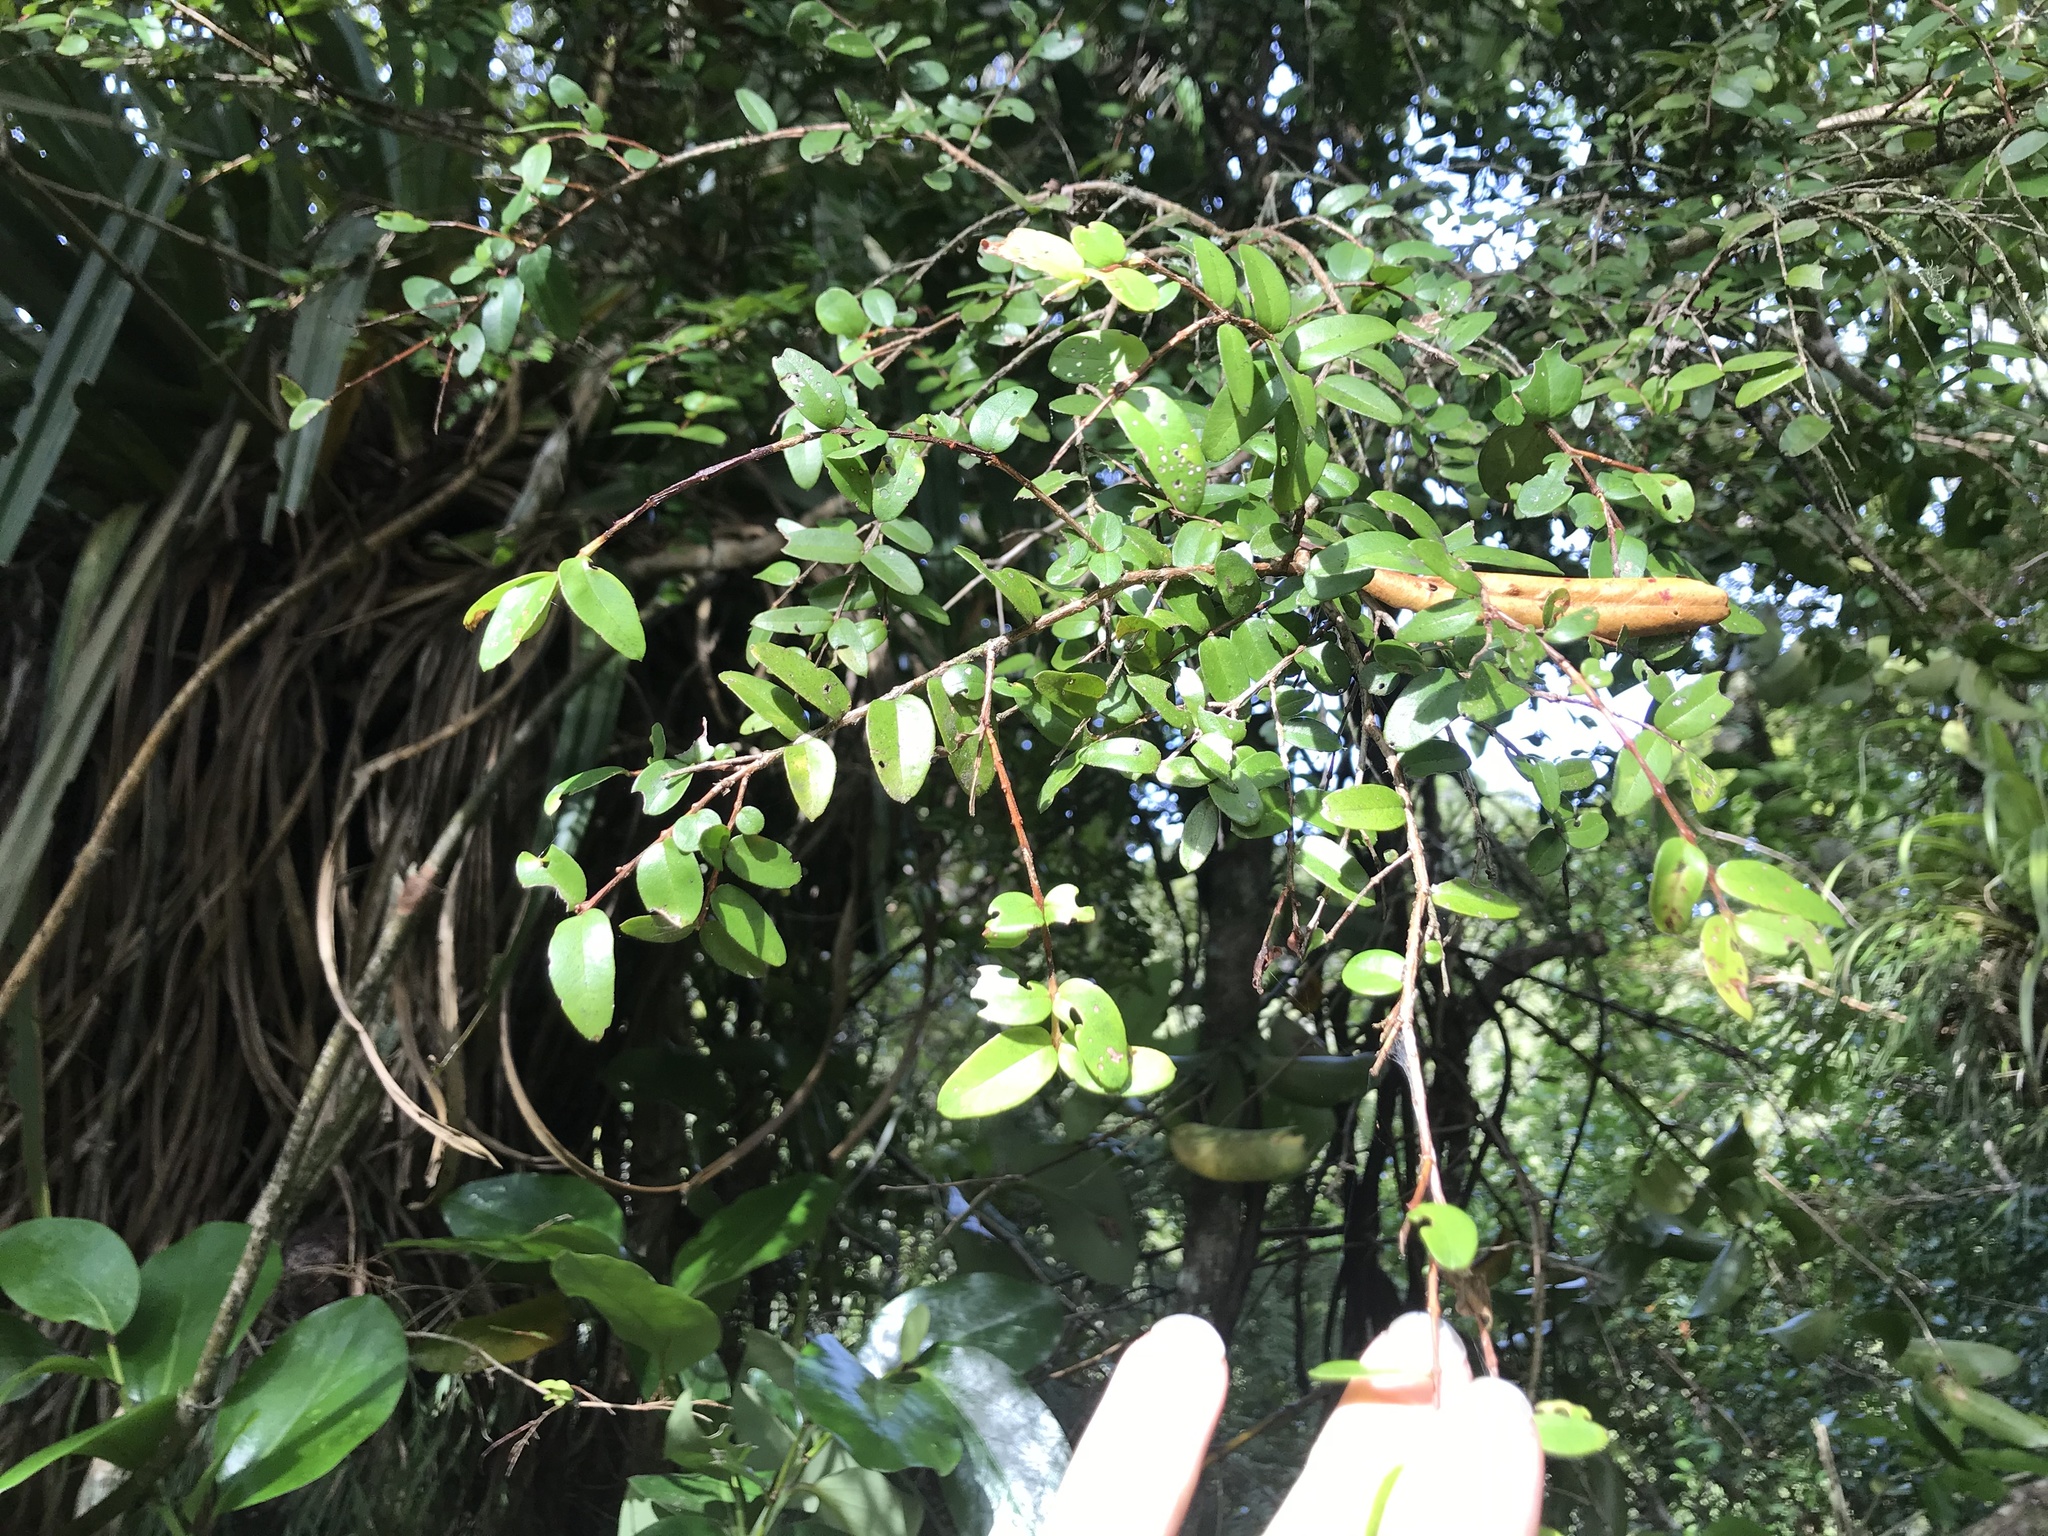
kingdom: Plantae
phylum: Tracheophyta
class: Magnoliopsida
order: Myrtales
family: Myrtaceae
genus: Metrosideros
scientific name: Metrosideros diffusa
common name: Small ratavine
